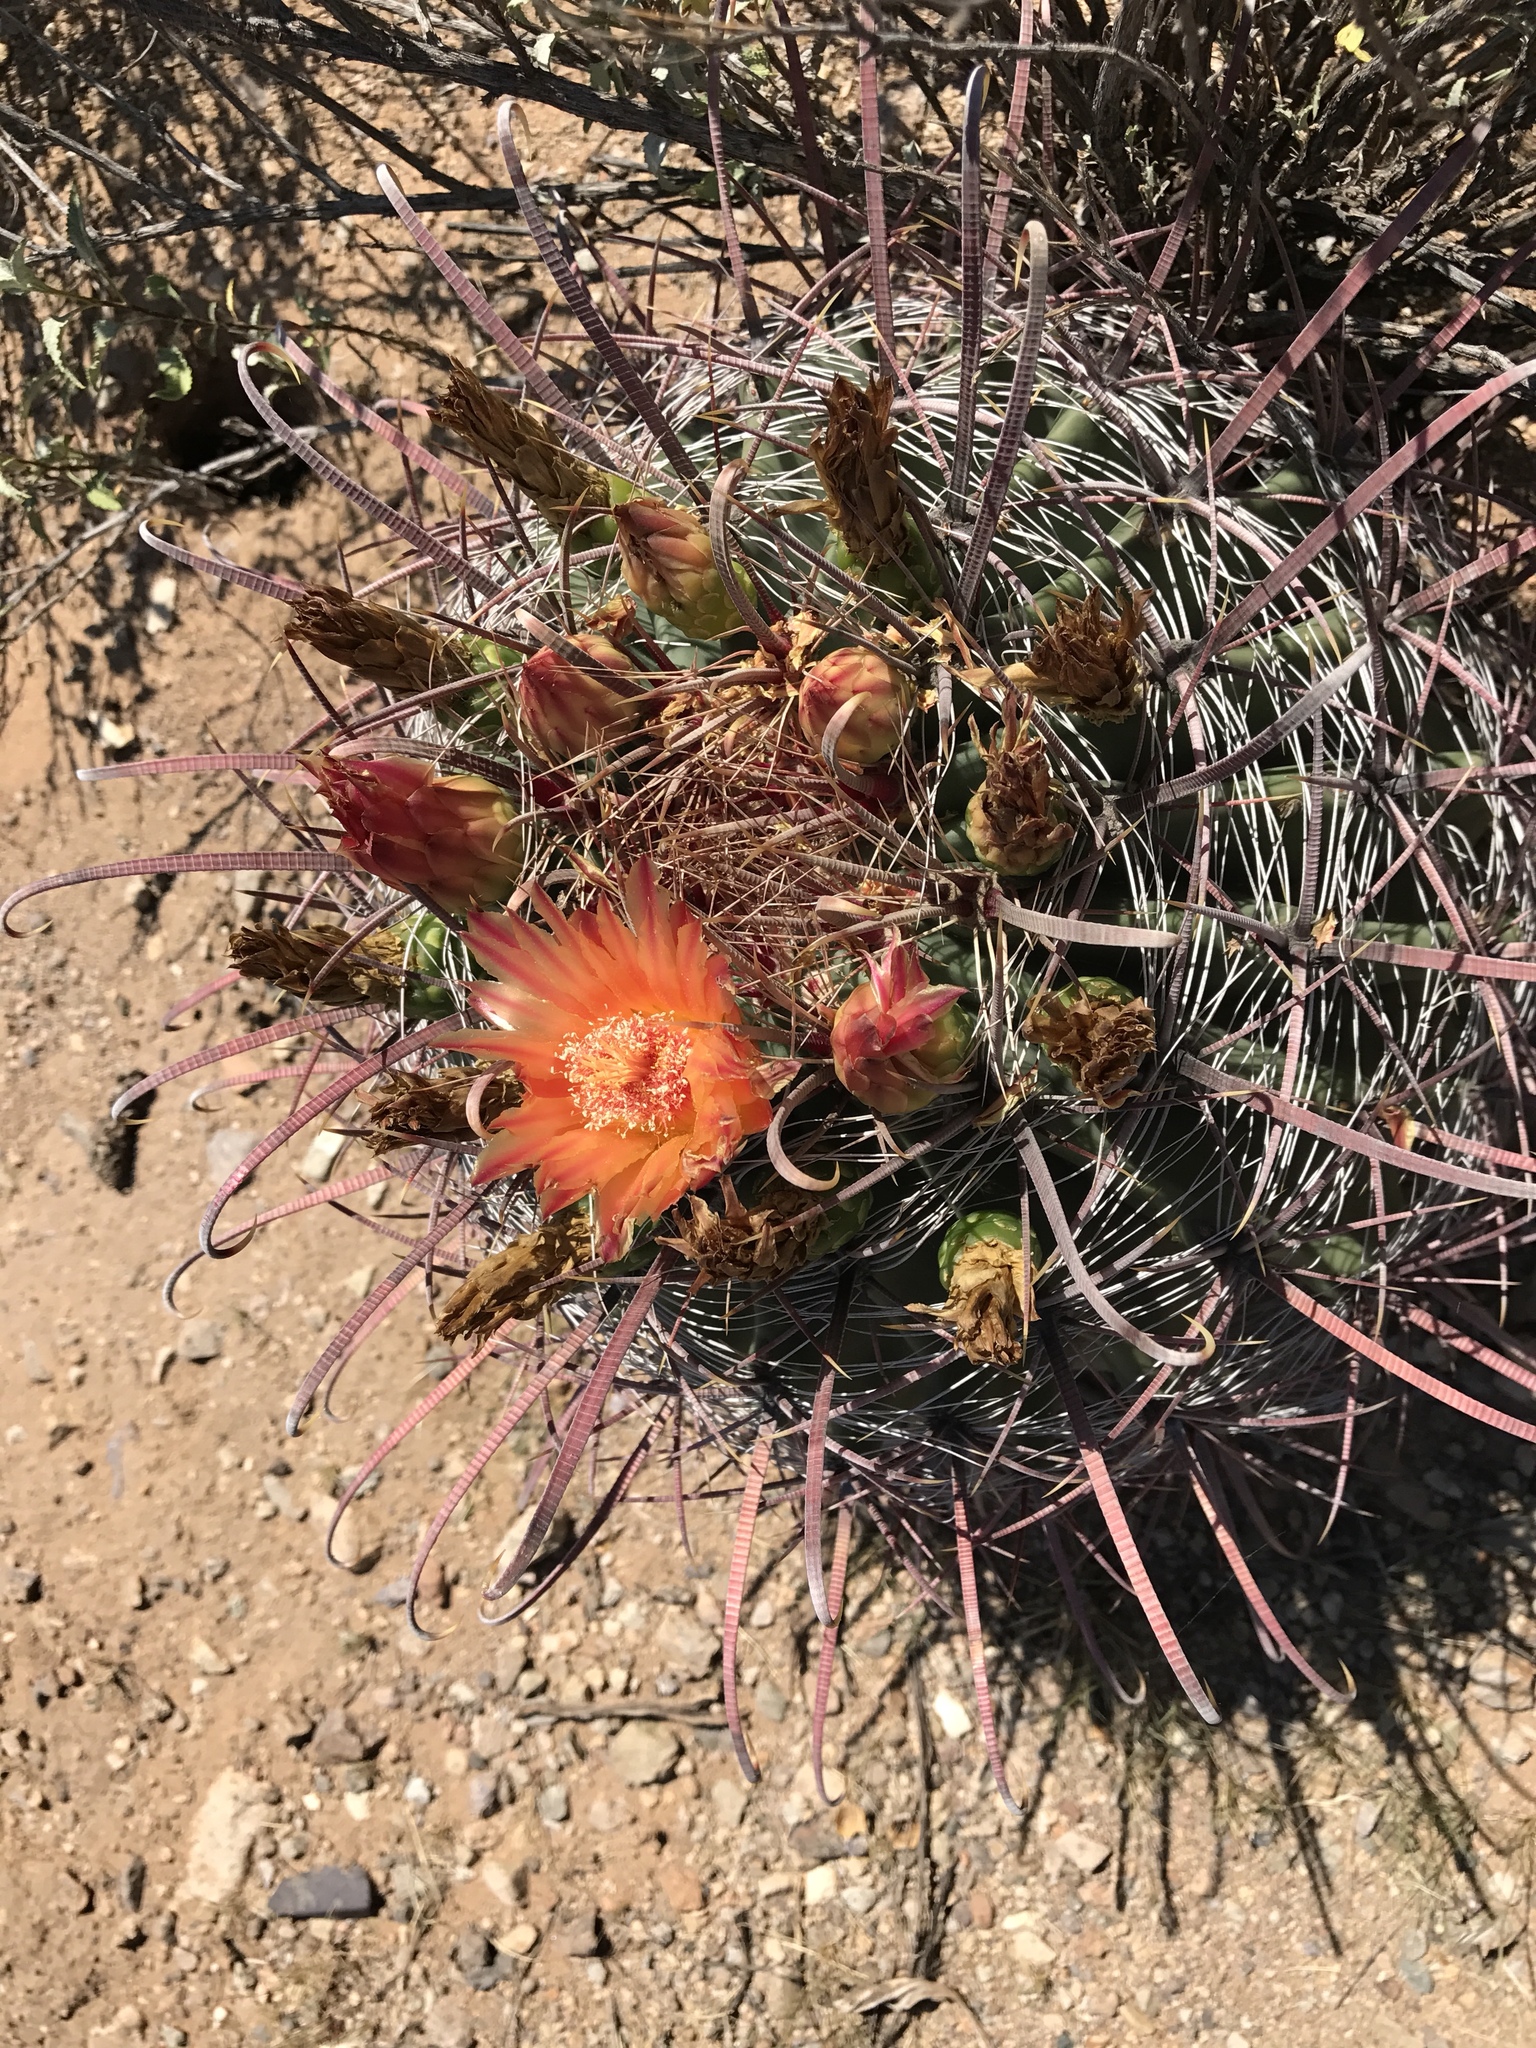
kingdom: Plantae
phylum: Tracheophyta
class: Magnoliopsida
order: Caryophyllales
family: Cactaceae
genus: Ferocactus
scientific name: Ferocactus wislizeni
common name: Candy barrel cactus
